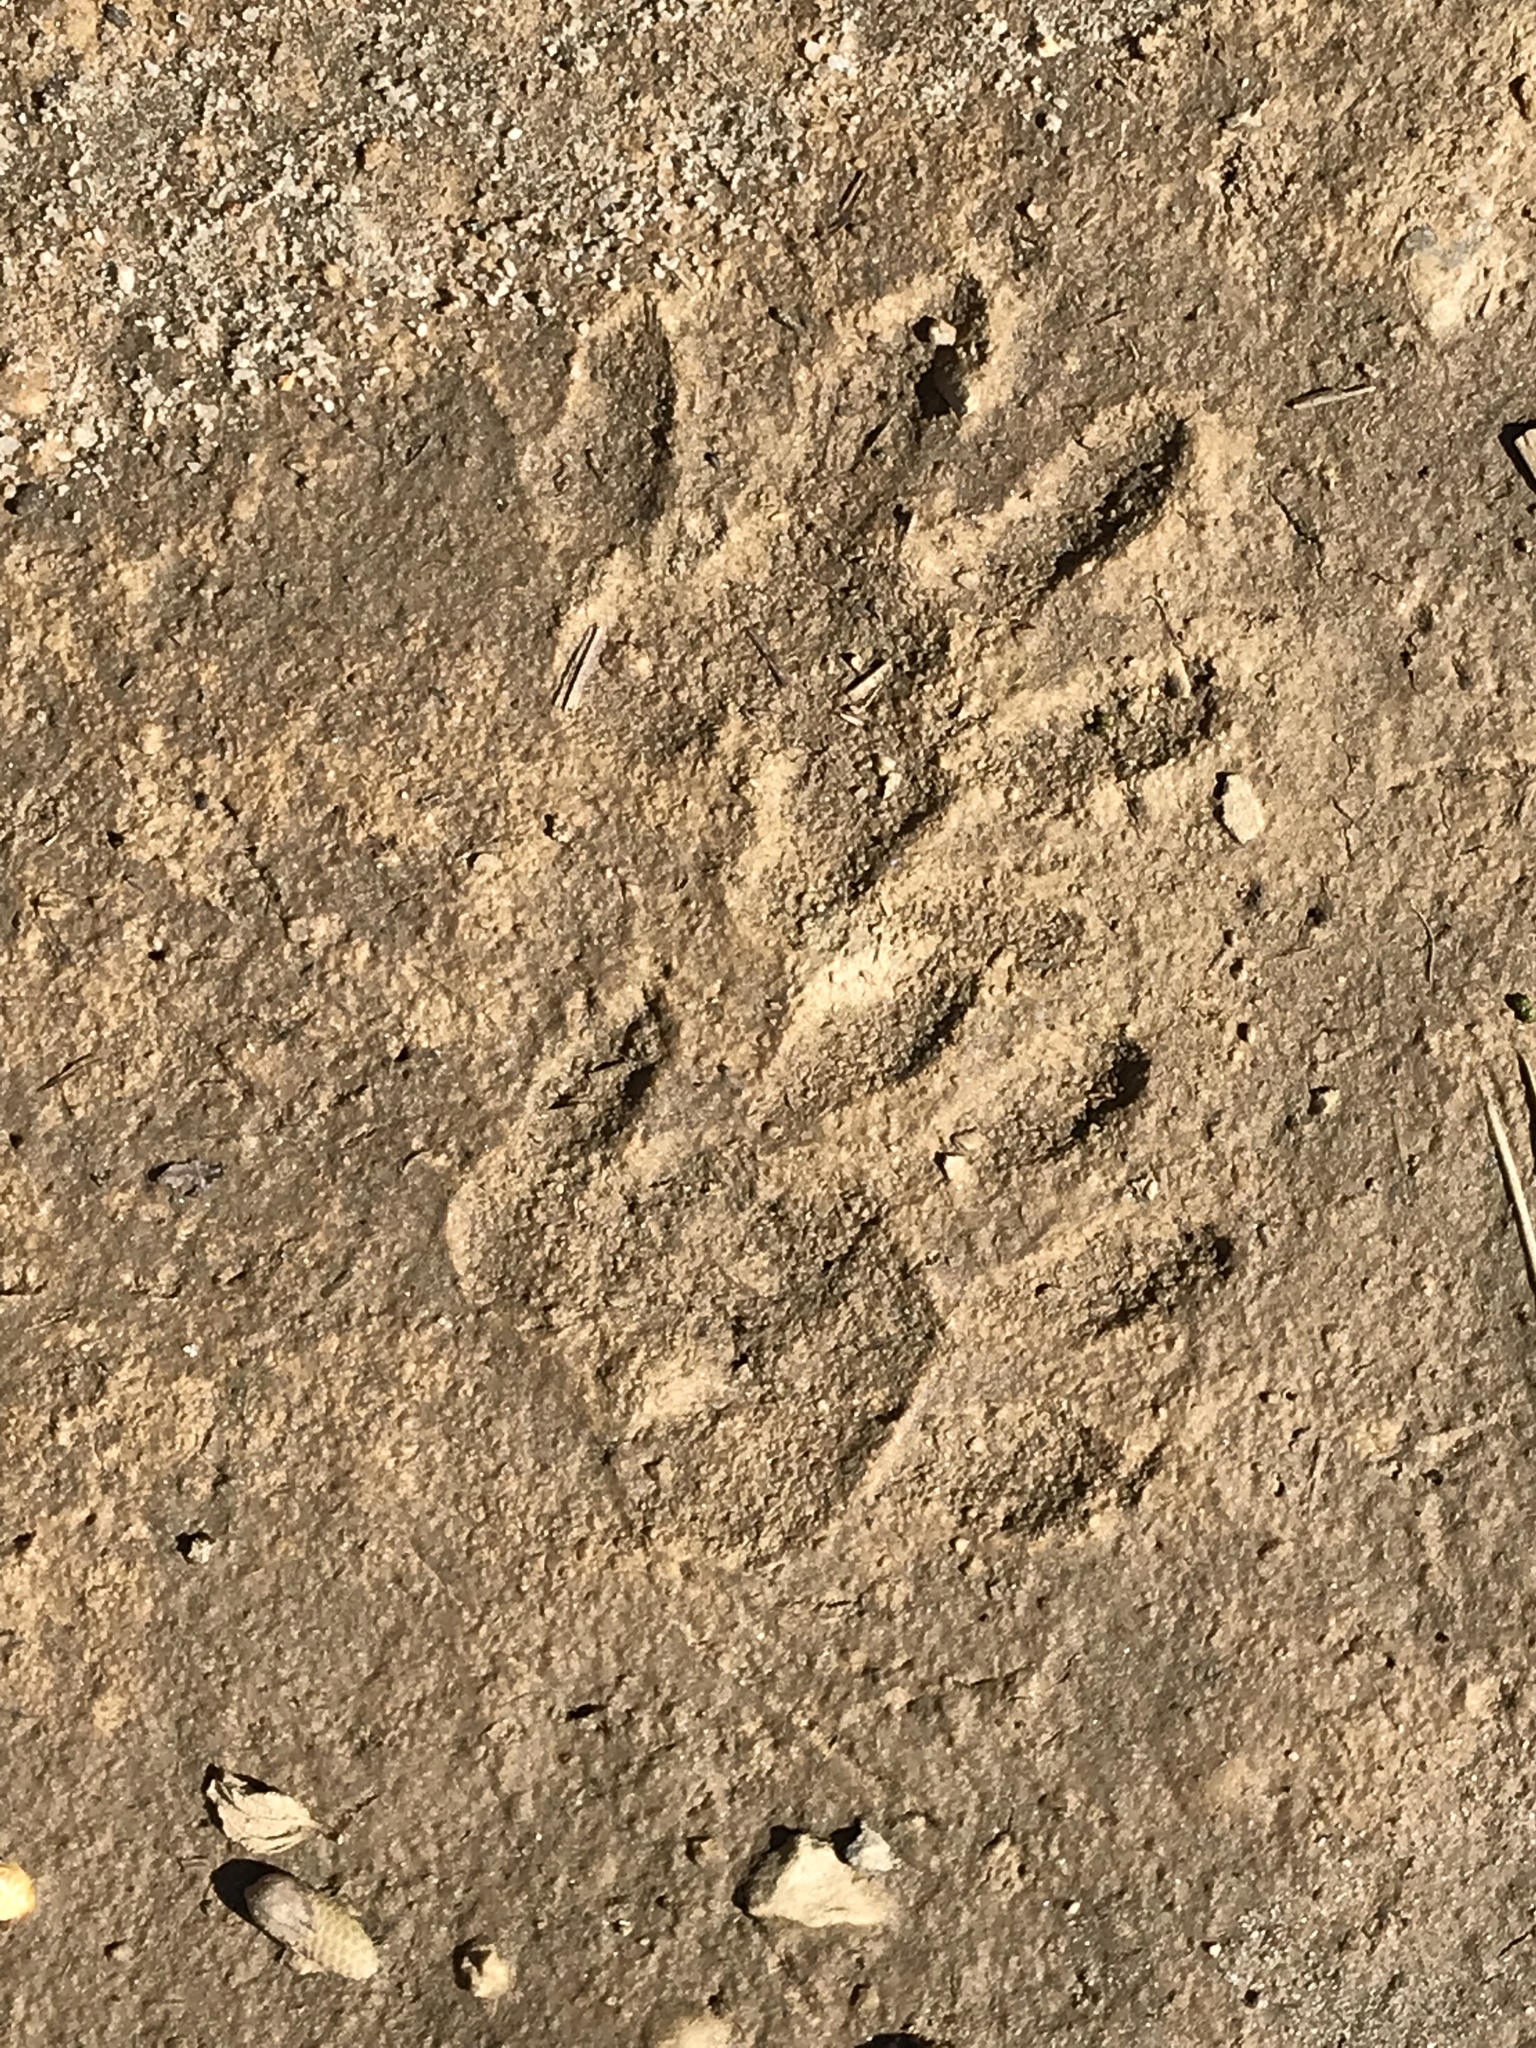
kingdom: Animalia
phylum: Chordata
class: Mammalia
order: Carnivora
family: Procyonidae
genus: Procyon
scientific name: Procyon lotor
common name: Raccoon
